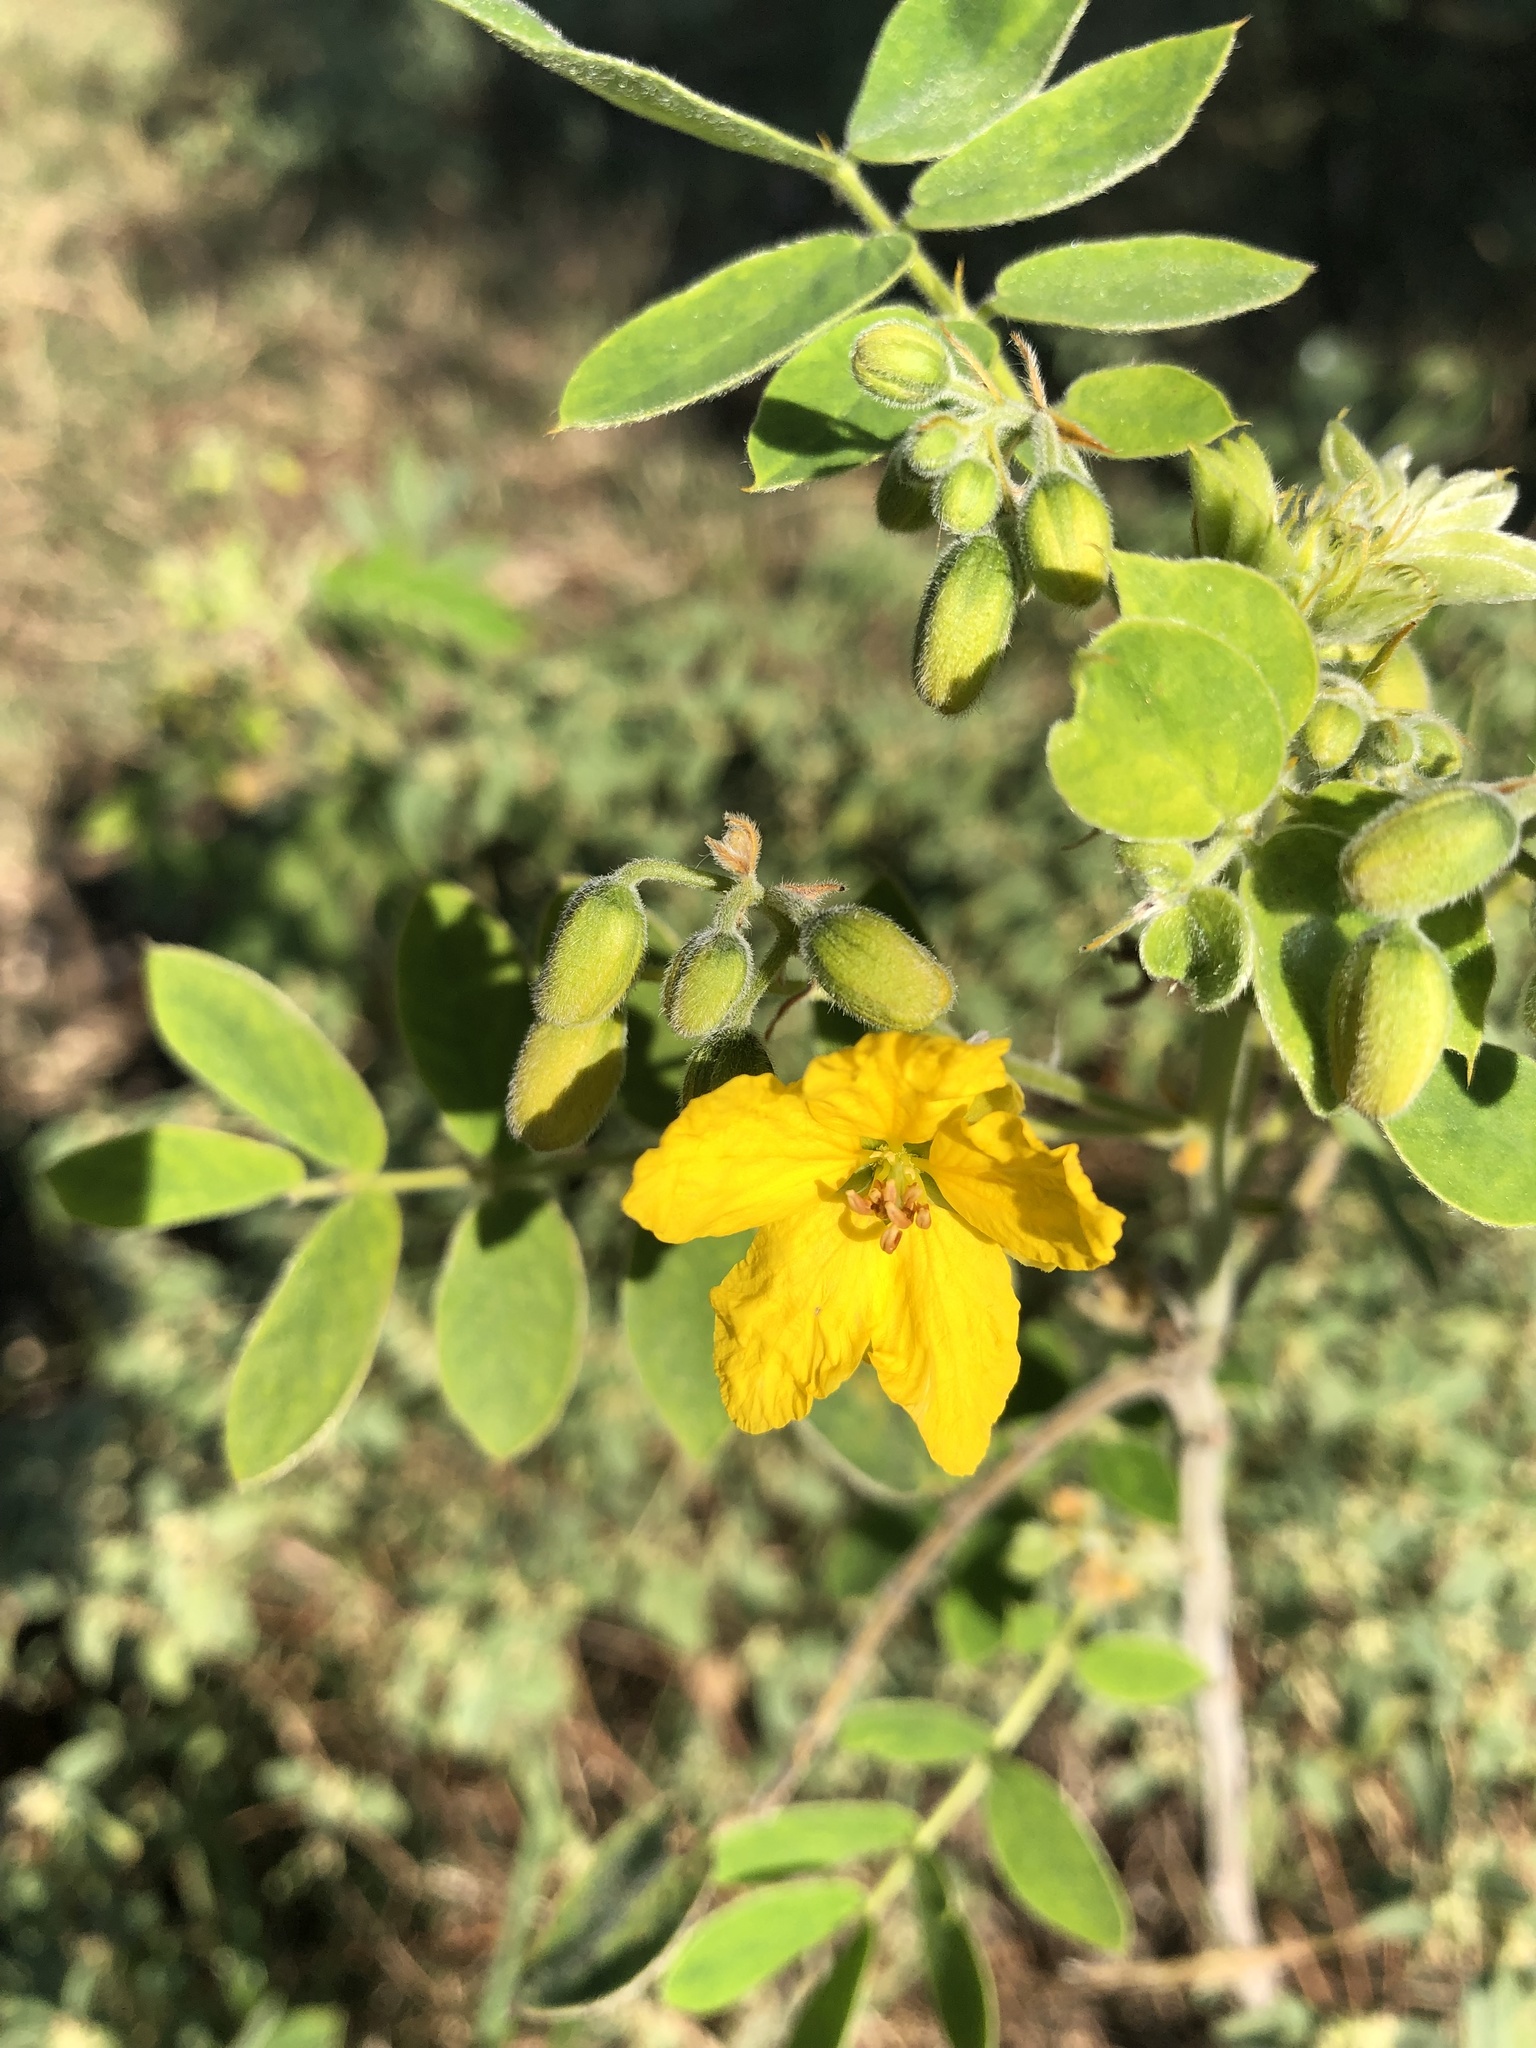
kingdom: Plantae
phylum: Tracheophyta
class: Magnoliopsida
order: Fabales
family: Fabaceae
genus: Senna
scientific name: Senna lindheimeriana
